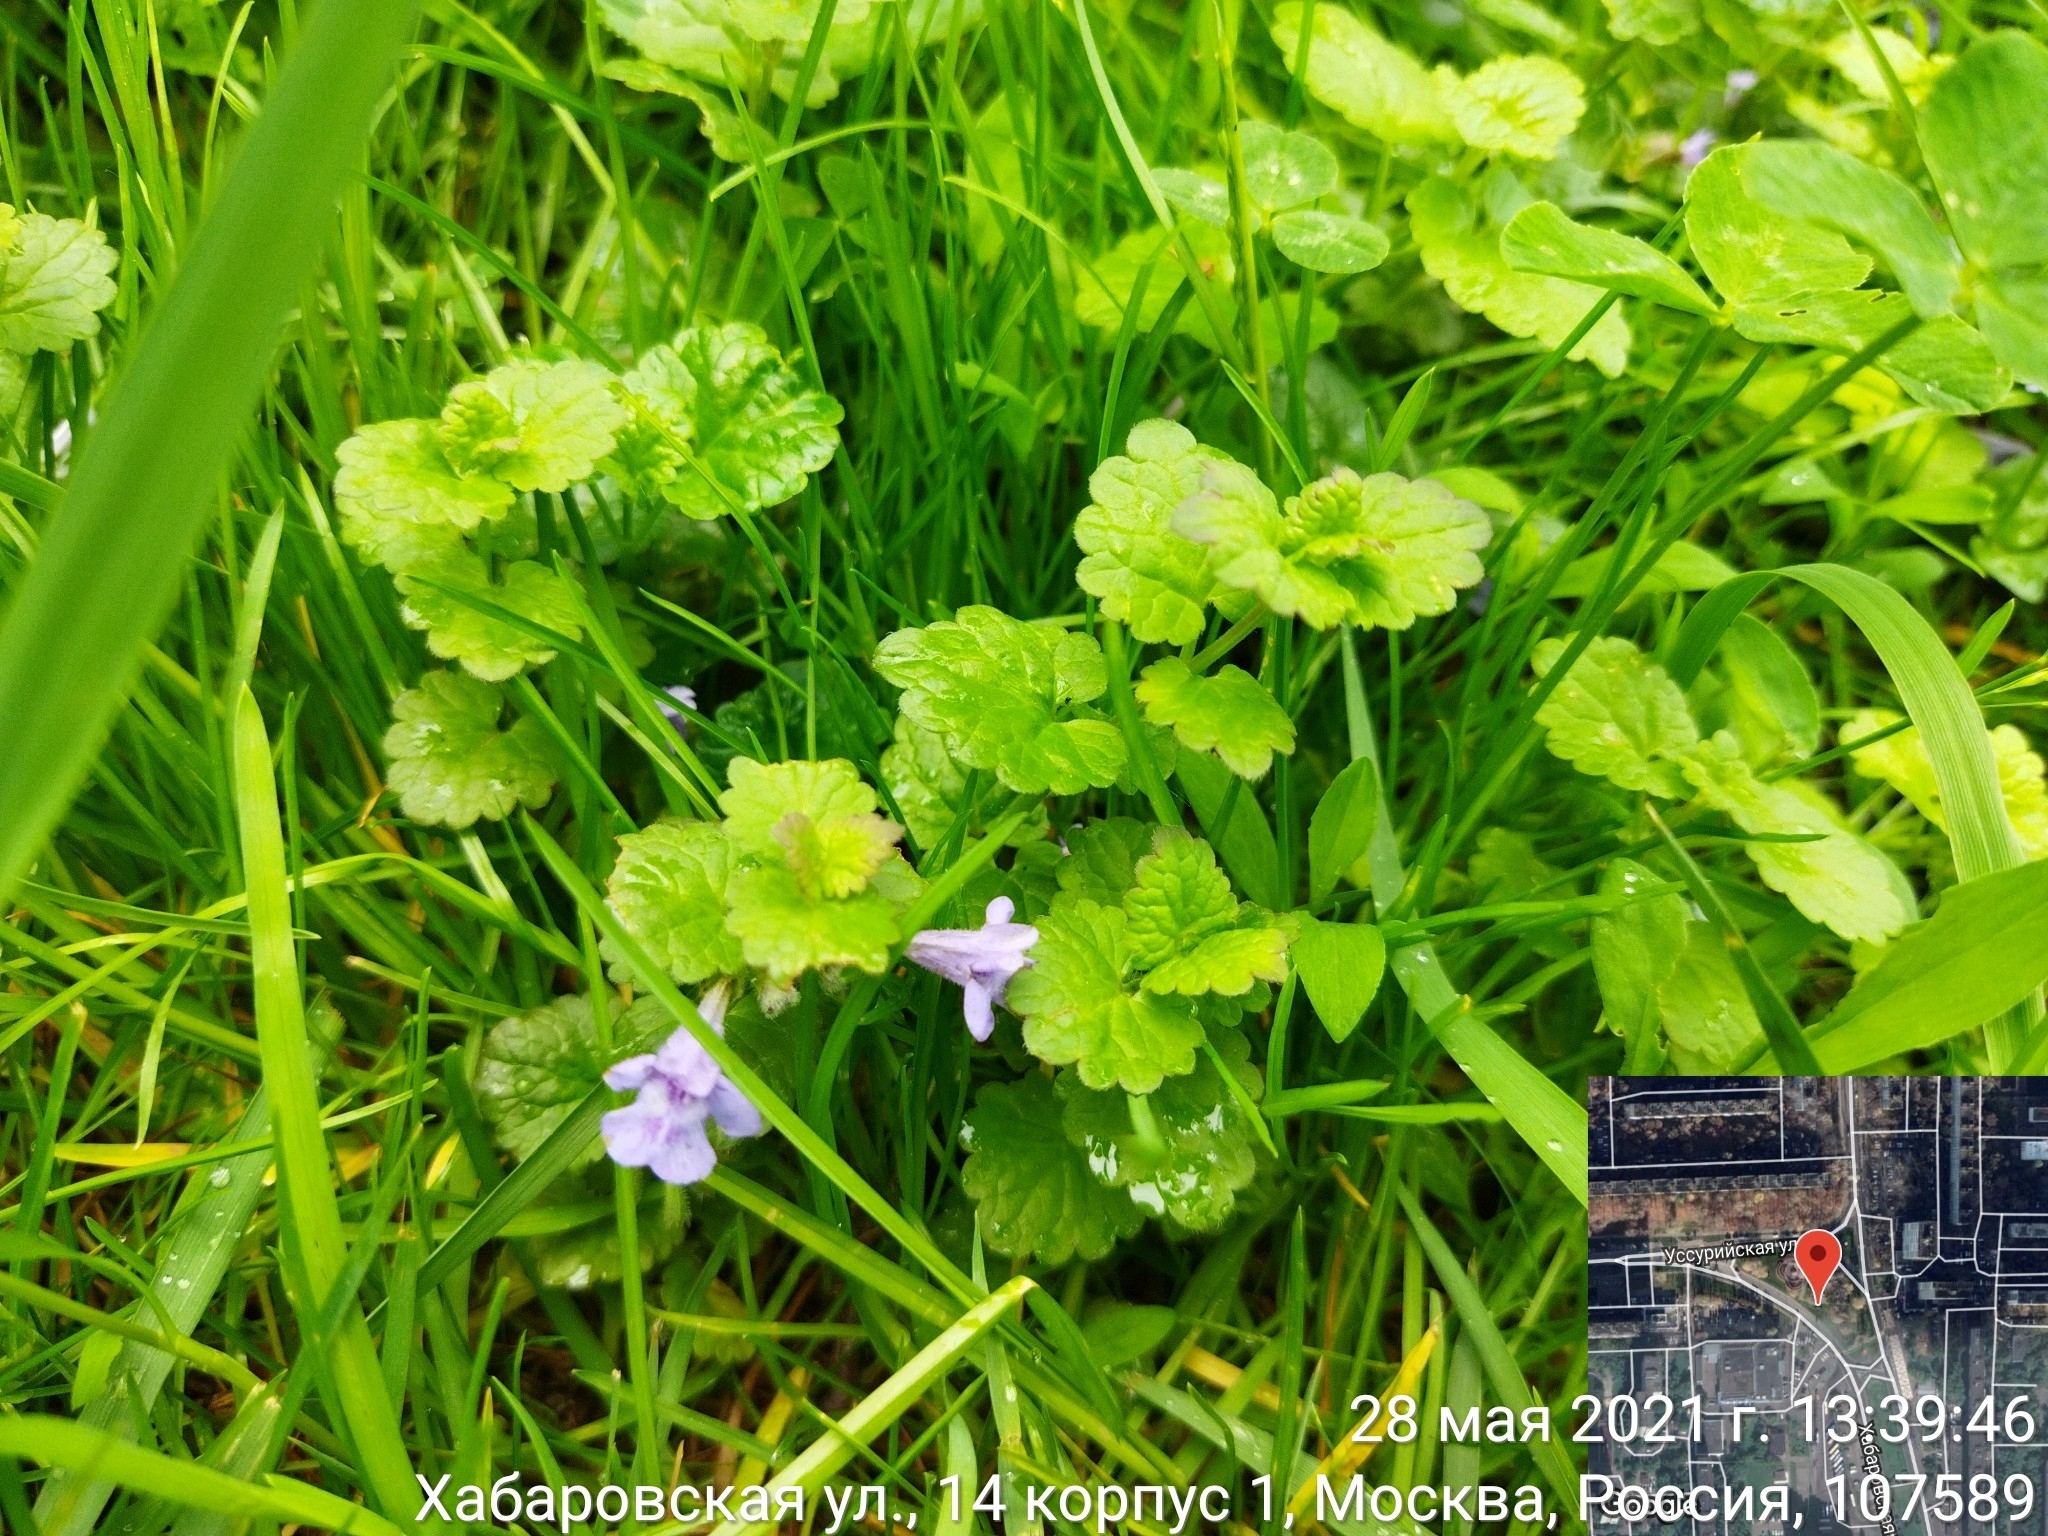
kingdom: Plantae
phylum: Tracheophyta
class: Magnoliopsida
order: Lamiales
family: Lamiaceae
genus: Glechoma
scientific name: Glechoma hederacea
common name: Ground ivy
